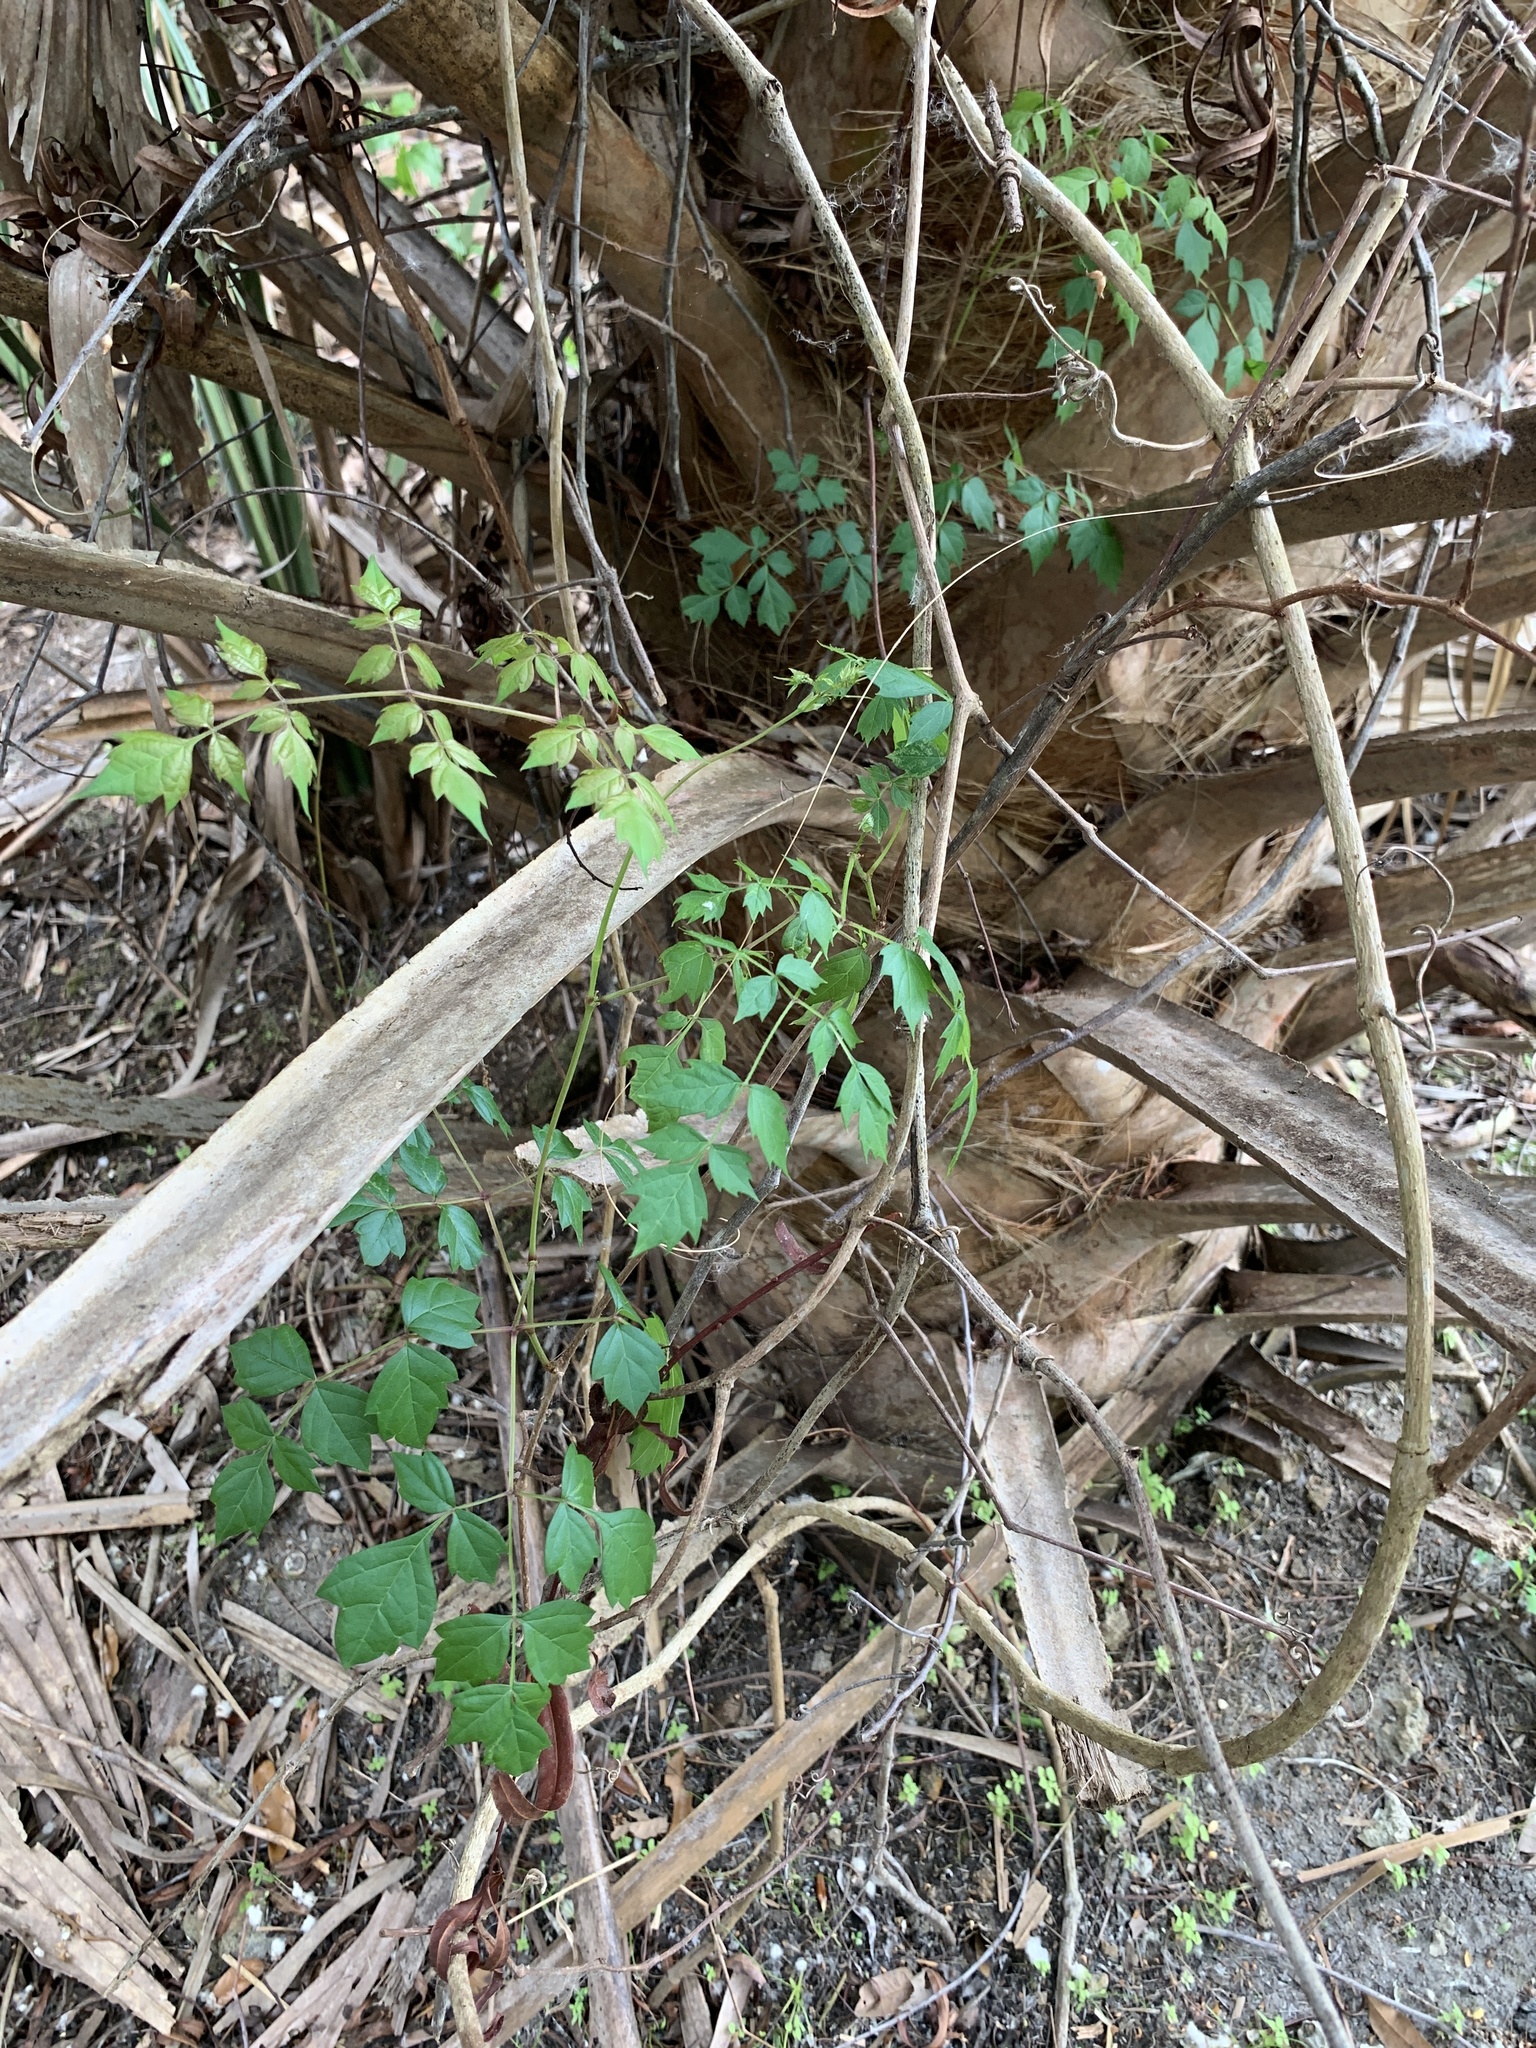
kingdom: Plantae
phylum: Tracheophyta
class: Magnoliopsida
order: Vitales
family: Vitaceae
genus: Nekemias
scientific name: Nekemias arborea
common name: Peppervine
